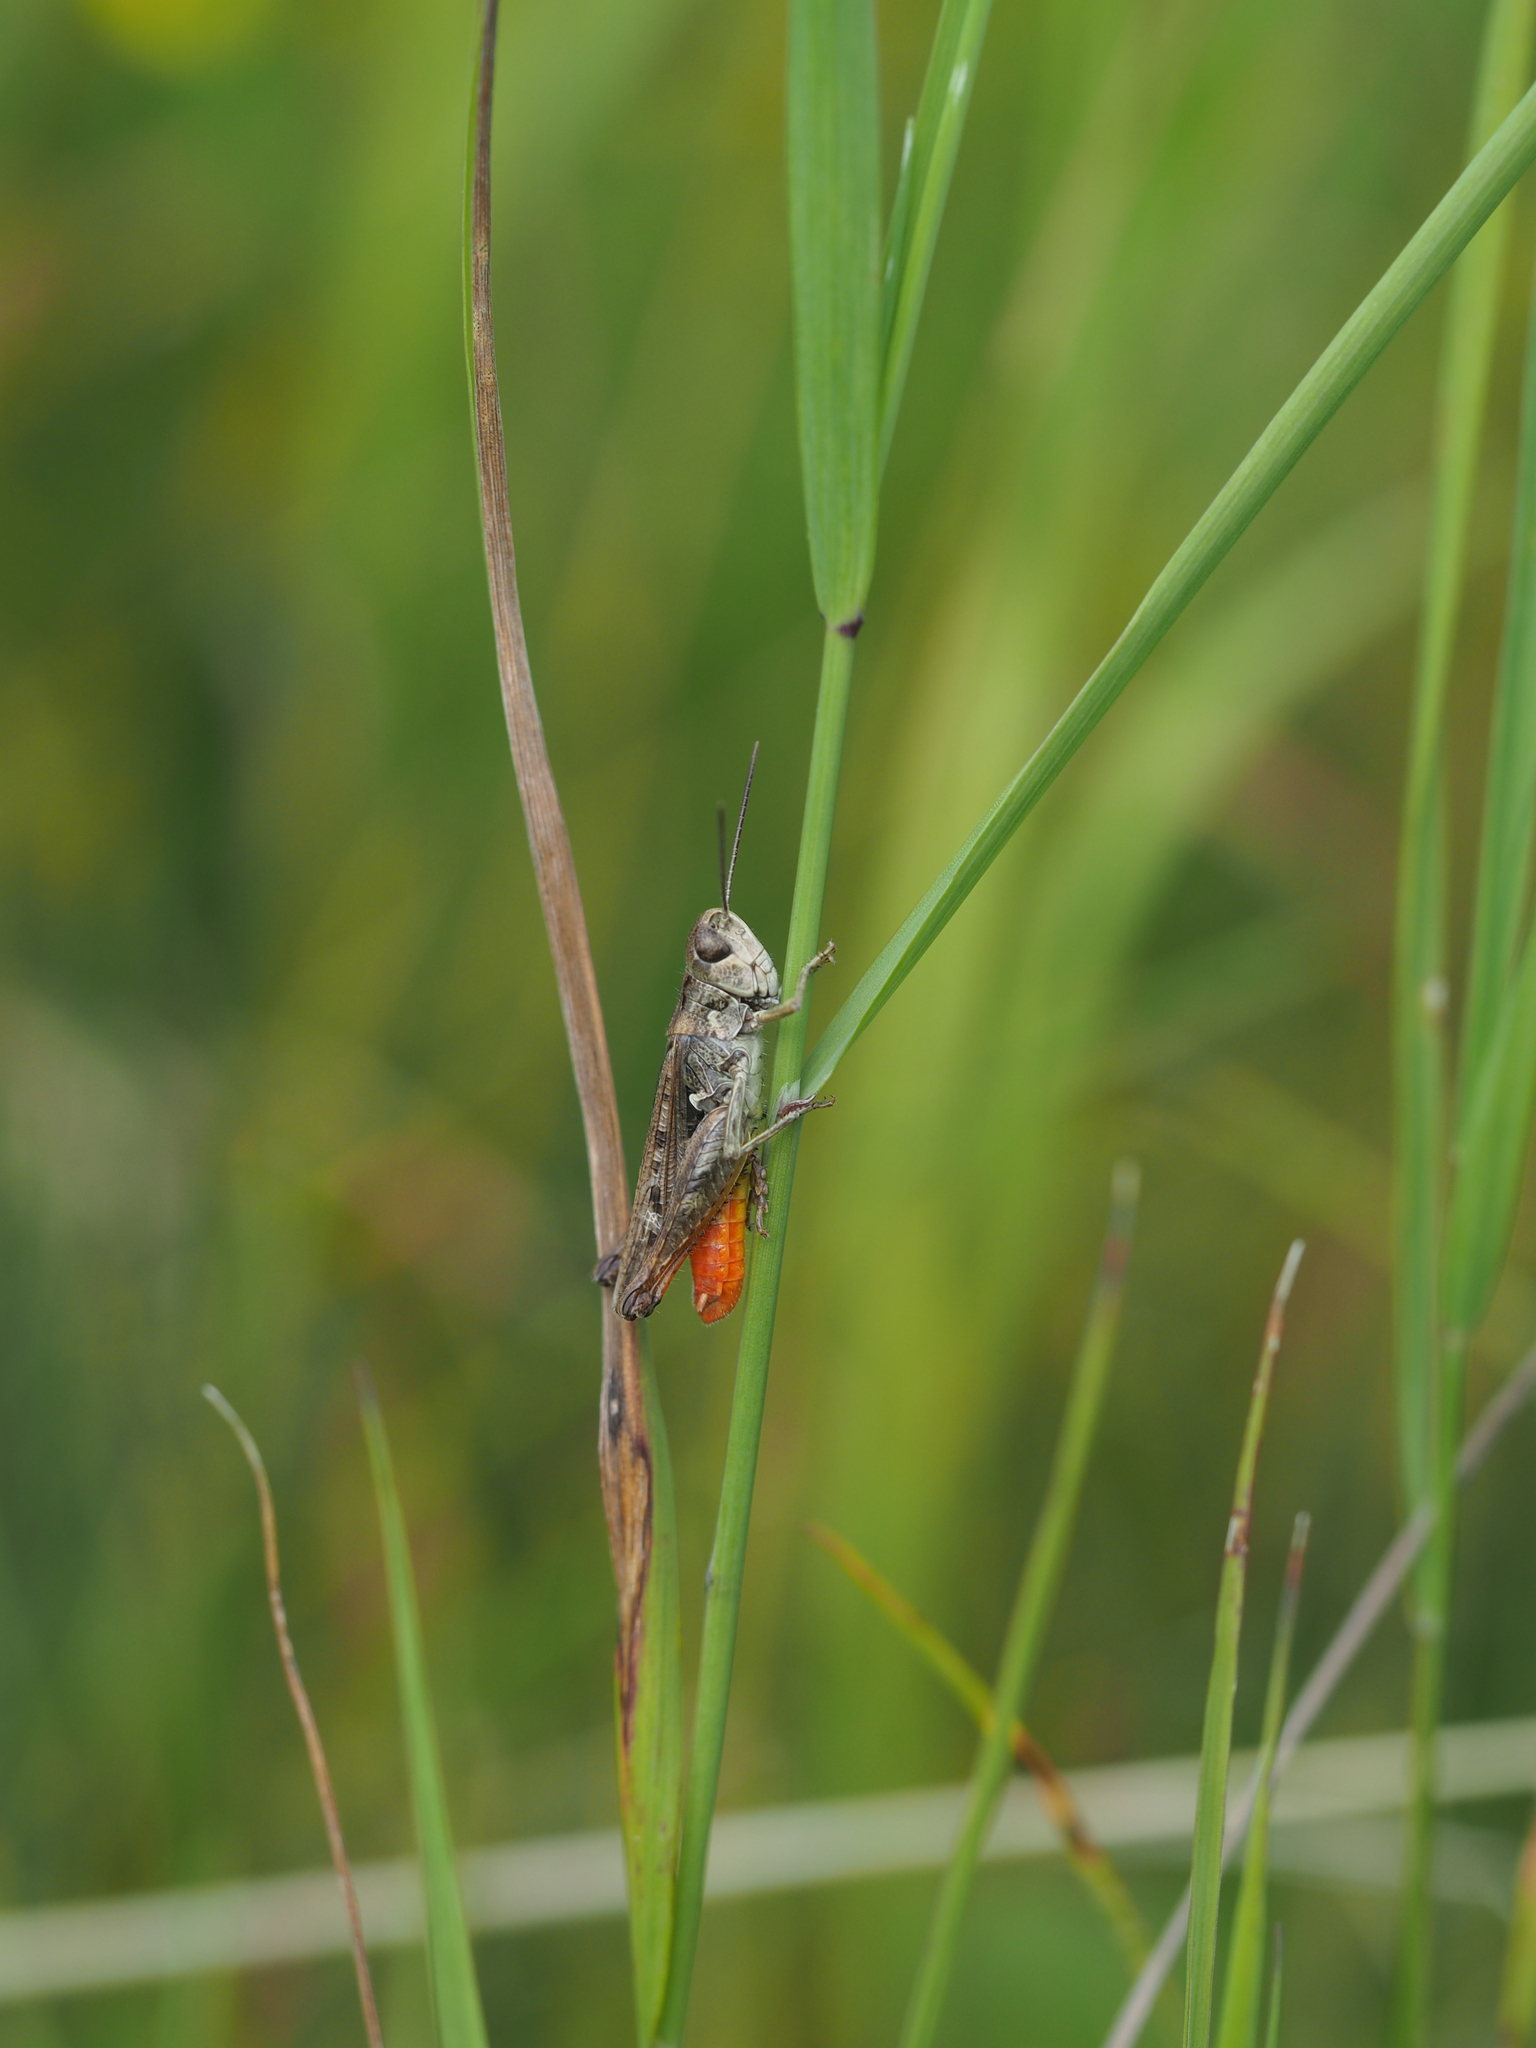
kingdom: Animalia
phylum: Arthropoda
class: Insecta
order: Orthoptera
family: Acrididae
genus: Omocestus
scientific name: Omocestus haemorrhoidalis
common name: Orange-tipped grasshopper
